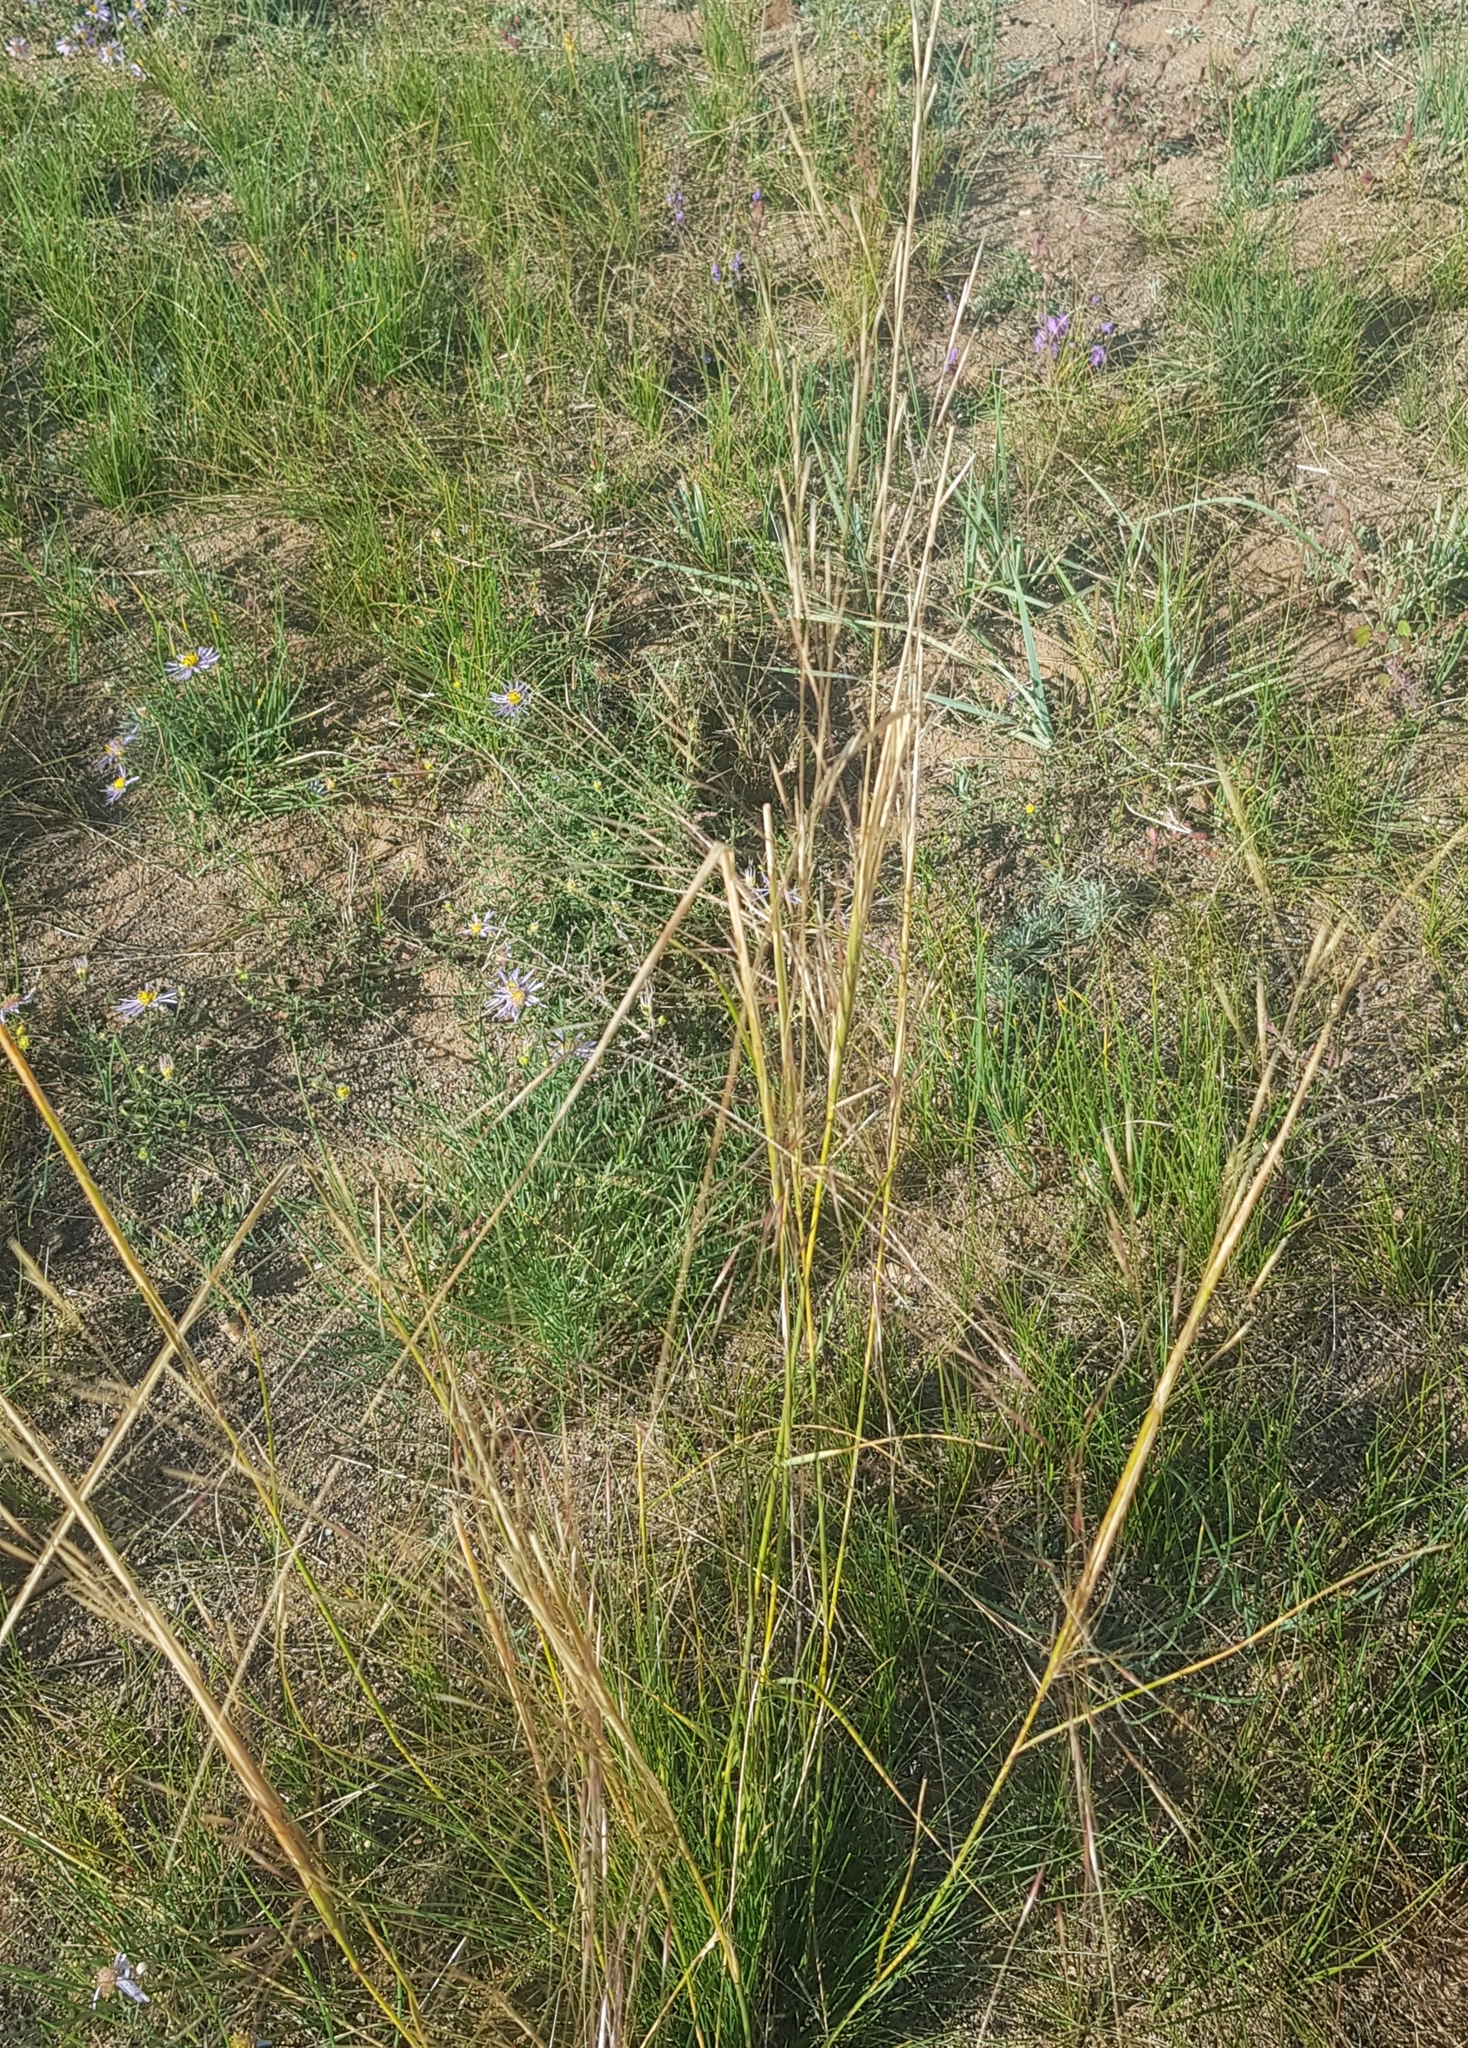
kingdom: Plantae
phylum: Tracheophyta
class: Liliopsida
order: Poales
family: Poaceae
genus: Stipa
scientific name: Stipa krylovii
